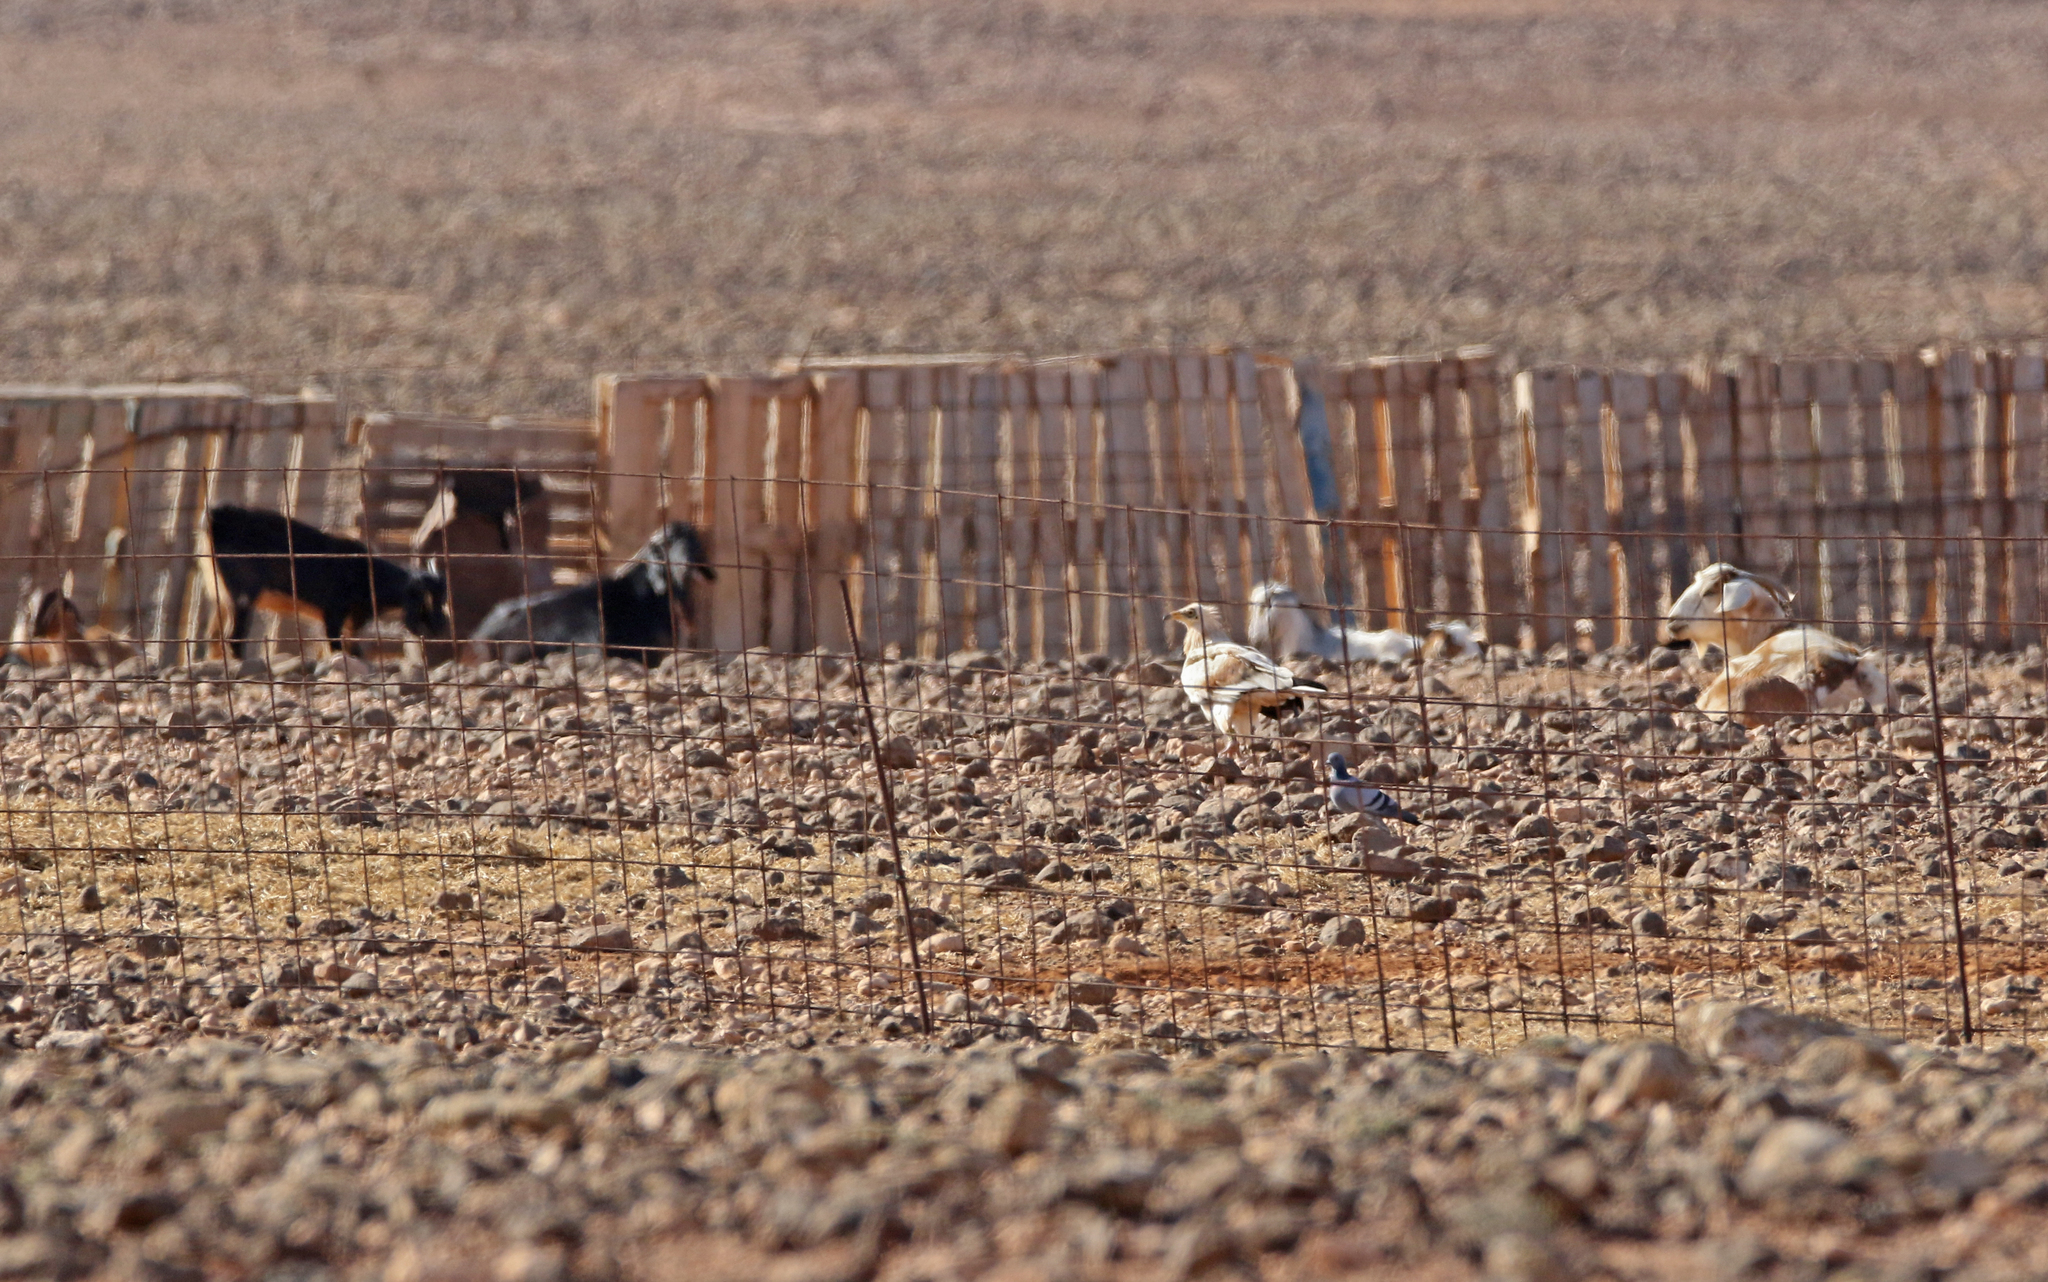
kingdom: Animalia
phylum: Chordata
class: Aves
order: Accipitriformes
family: Accipitridae
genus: Neophron
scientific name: Neophron percnopterus
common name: Egyptian vulture
